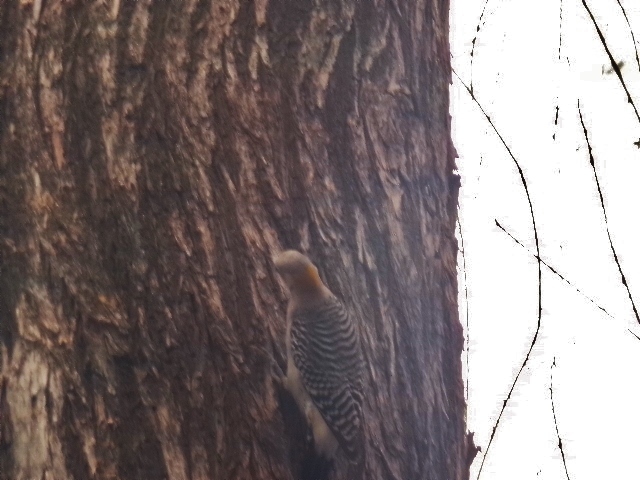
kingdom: Animalia
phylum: Chordata
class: Aves
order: Piciformes
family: Picidae
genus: Melanerpes
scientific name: Melanerpes aurifrons
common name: Golden-fronted woodpecker
